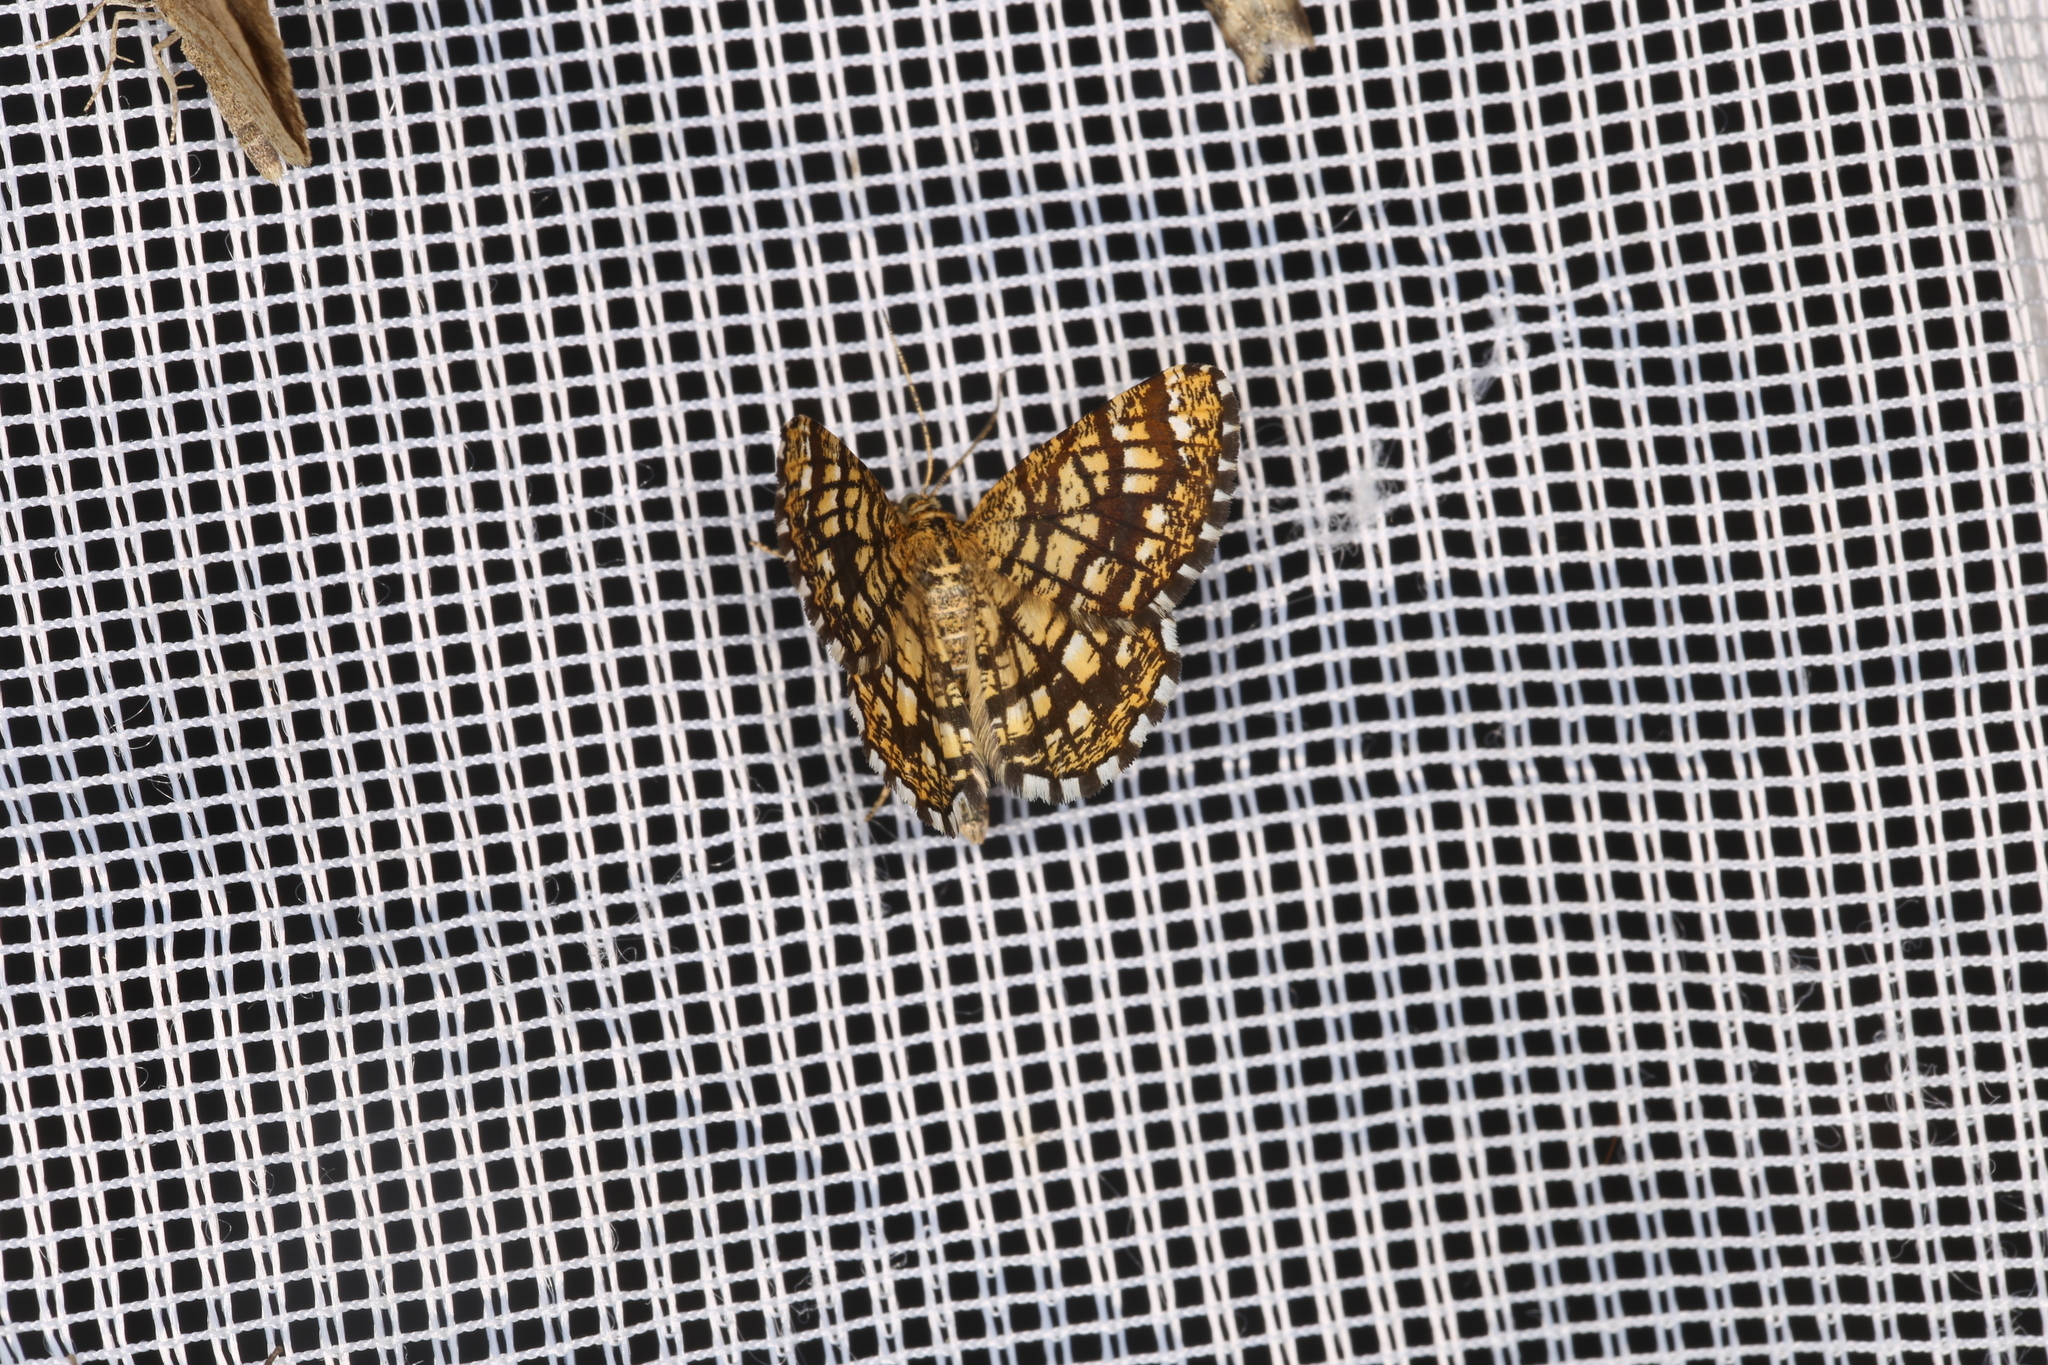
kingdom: Animalia
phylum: Arthropoda
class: Insecta
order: Lepidoptera
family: Geometridae
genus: Chiasmia
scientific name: Chiasmia clathrata
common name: Latticed heath
